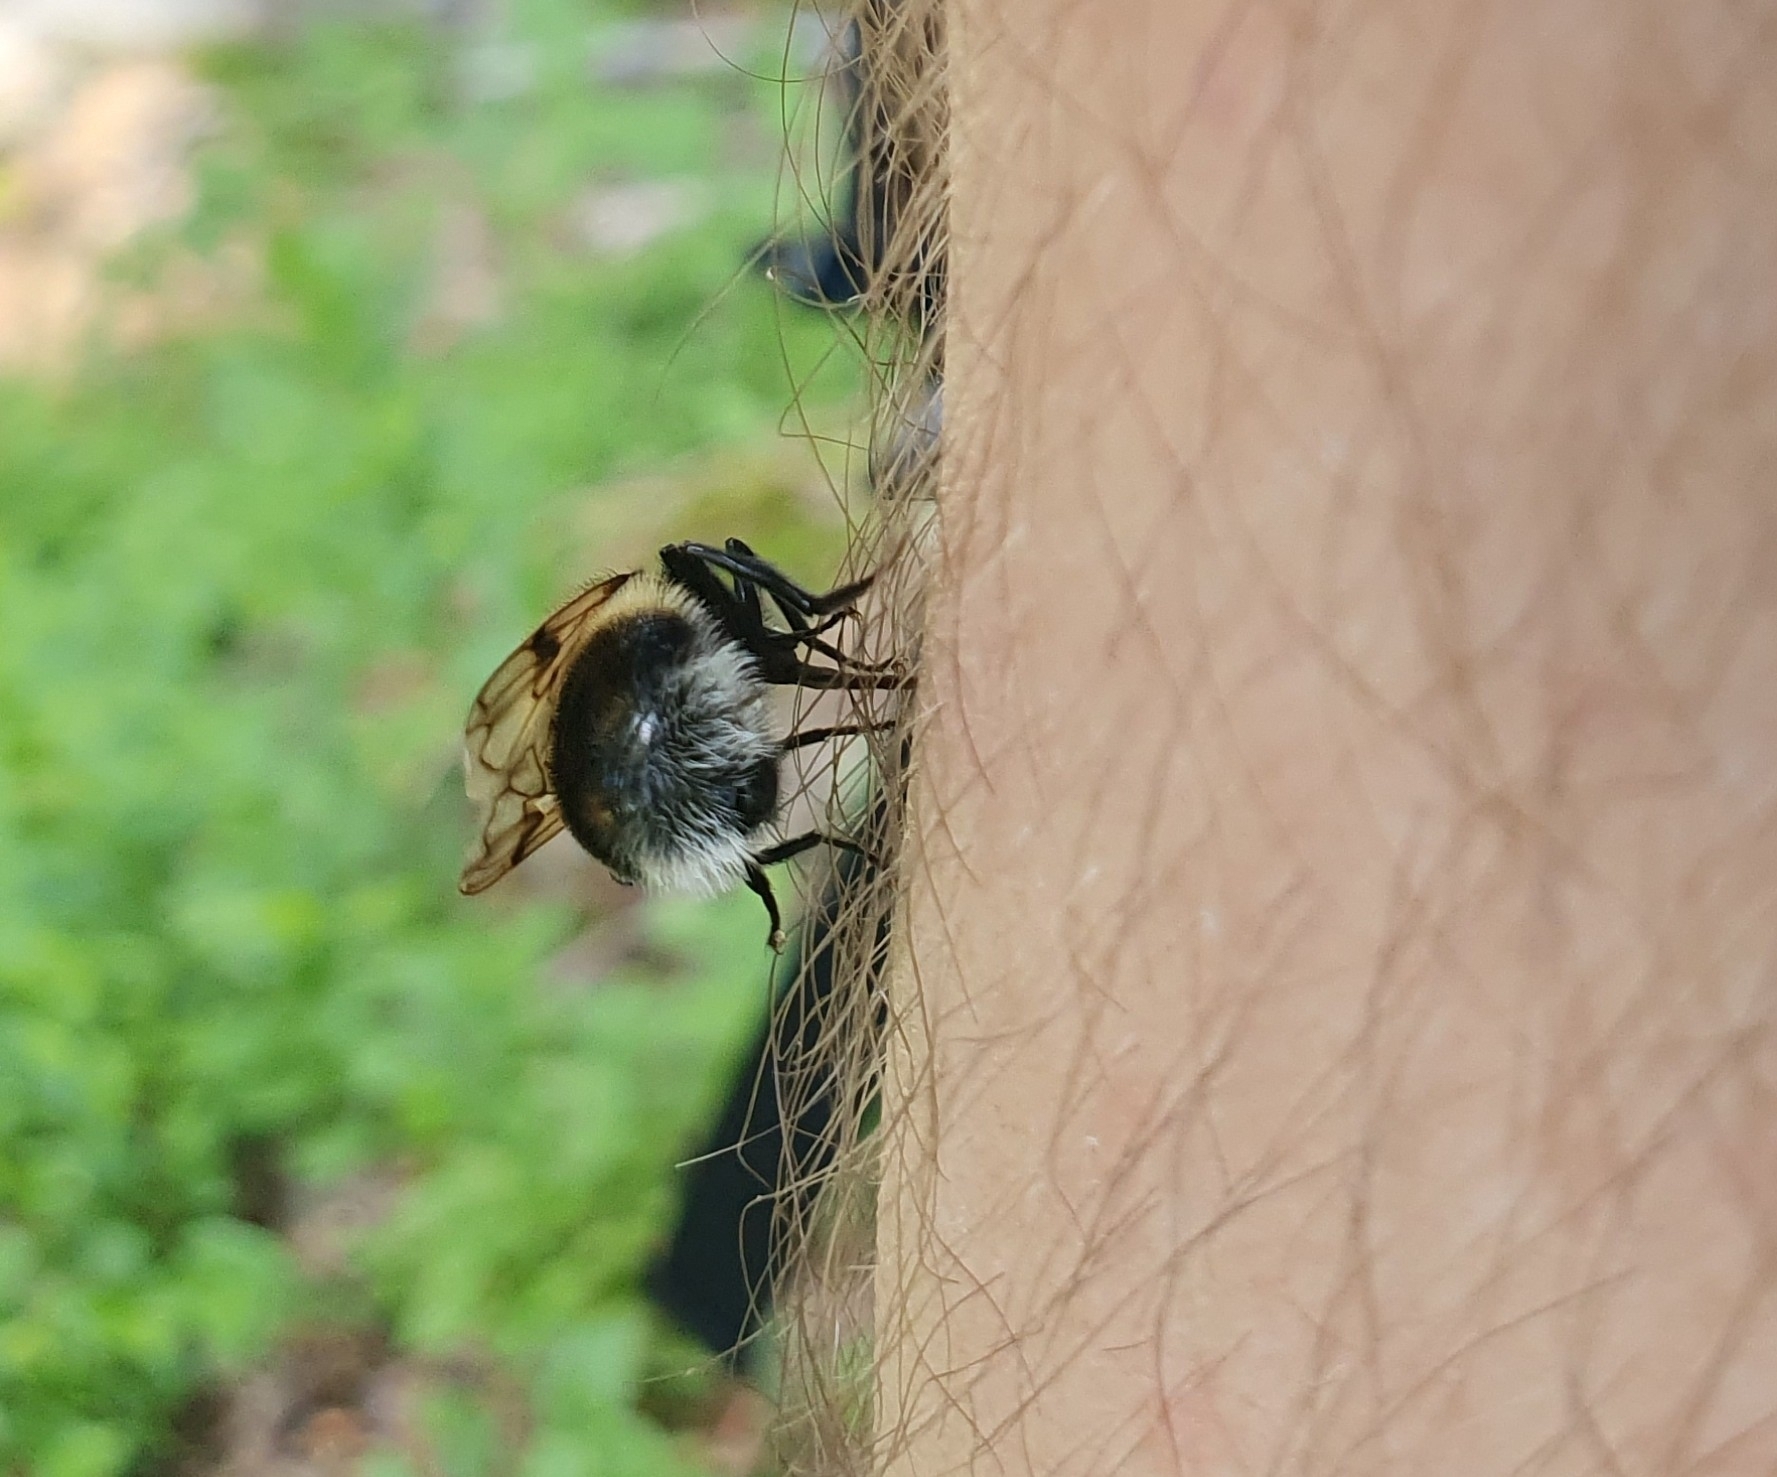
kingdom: Animalia
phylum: Arthropoda
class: Insecta
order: Diptera
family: Syrphidae
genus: Volucella
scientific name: Volucella bombylans
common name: Bumble bee hover fly
